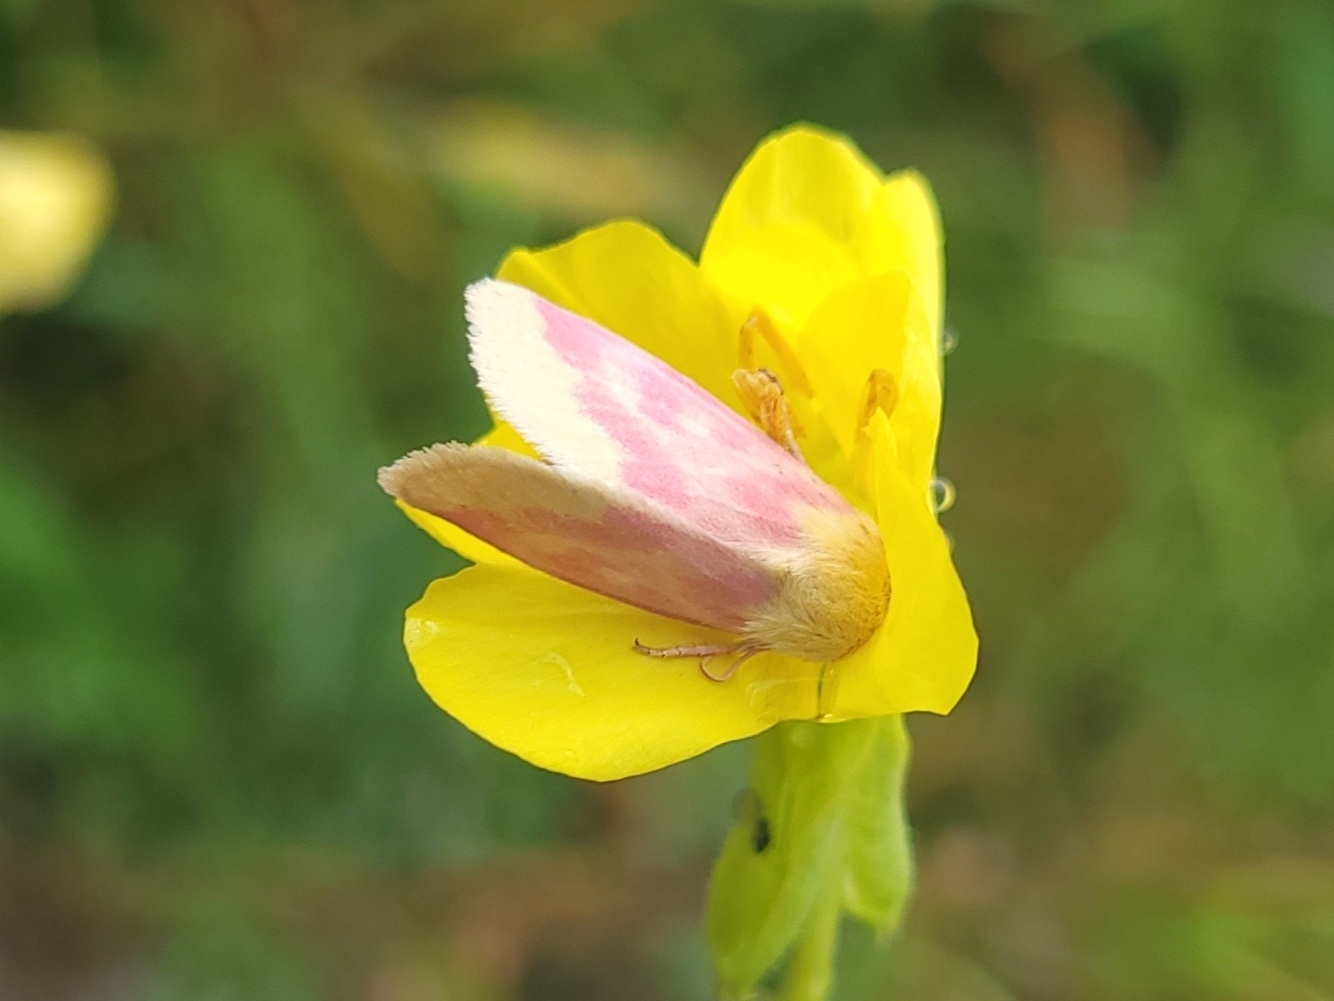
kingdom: Animalia
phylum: Arthropoda
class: Insecta
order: Lepidoptera
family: Noctuidae
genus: Schinia
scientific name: Schinia florida
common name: Primrose moth
